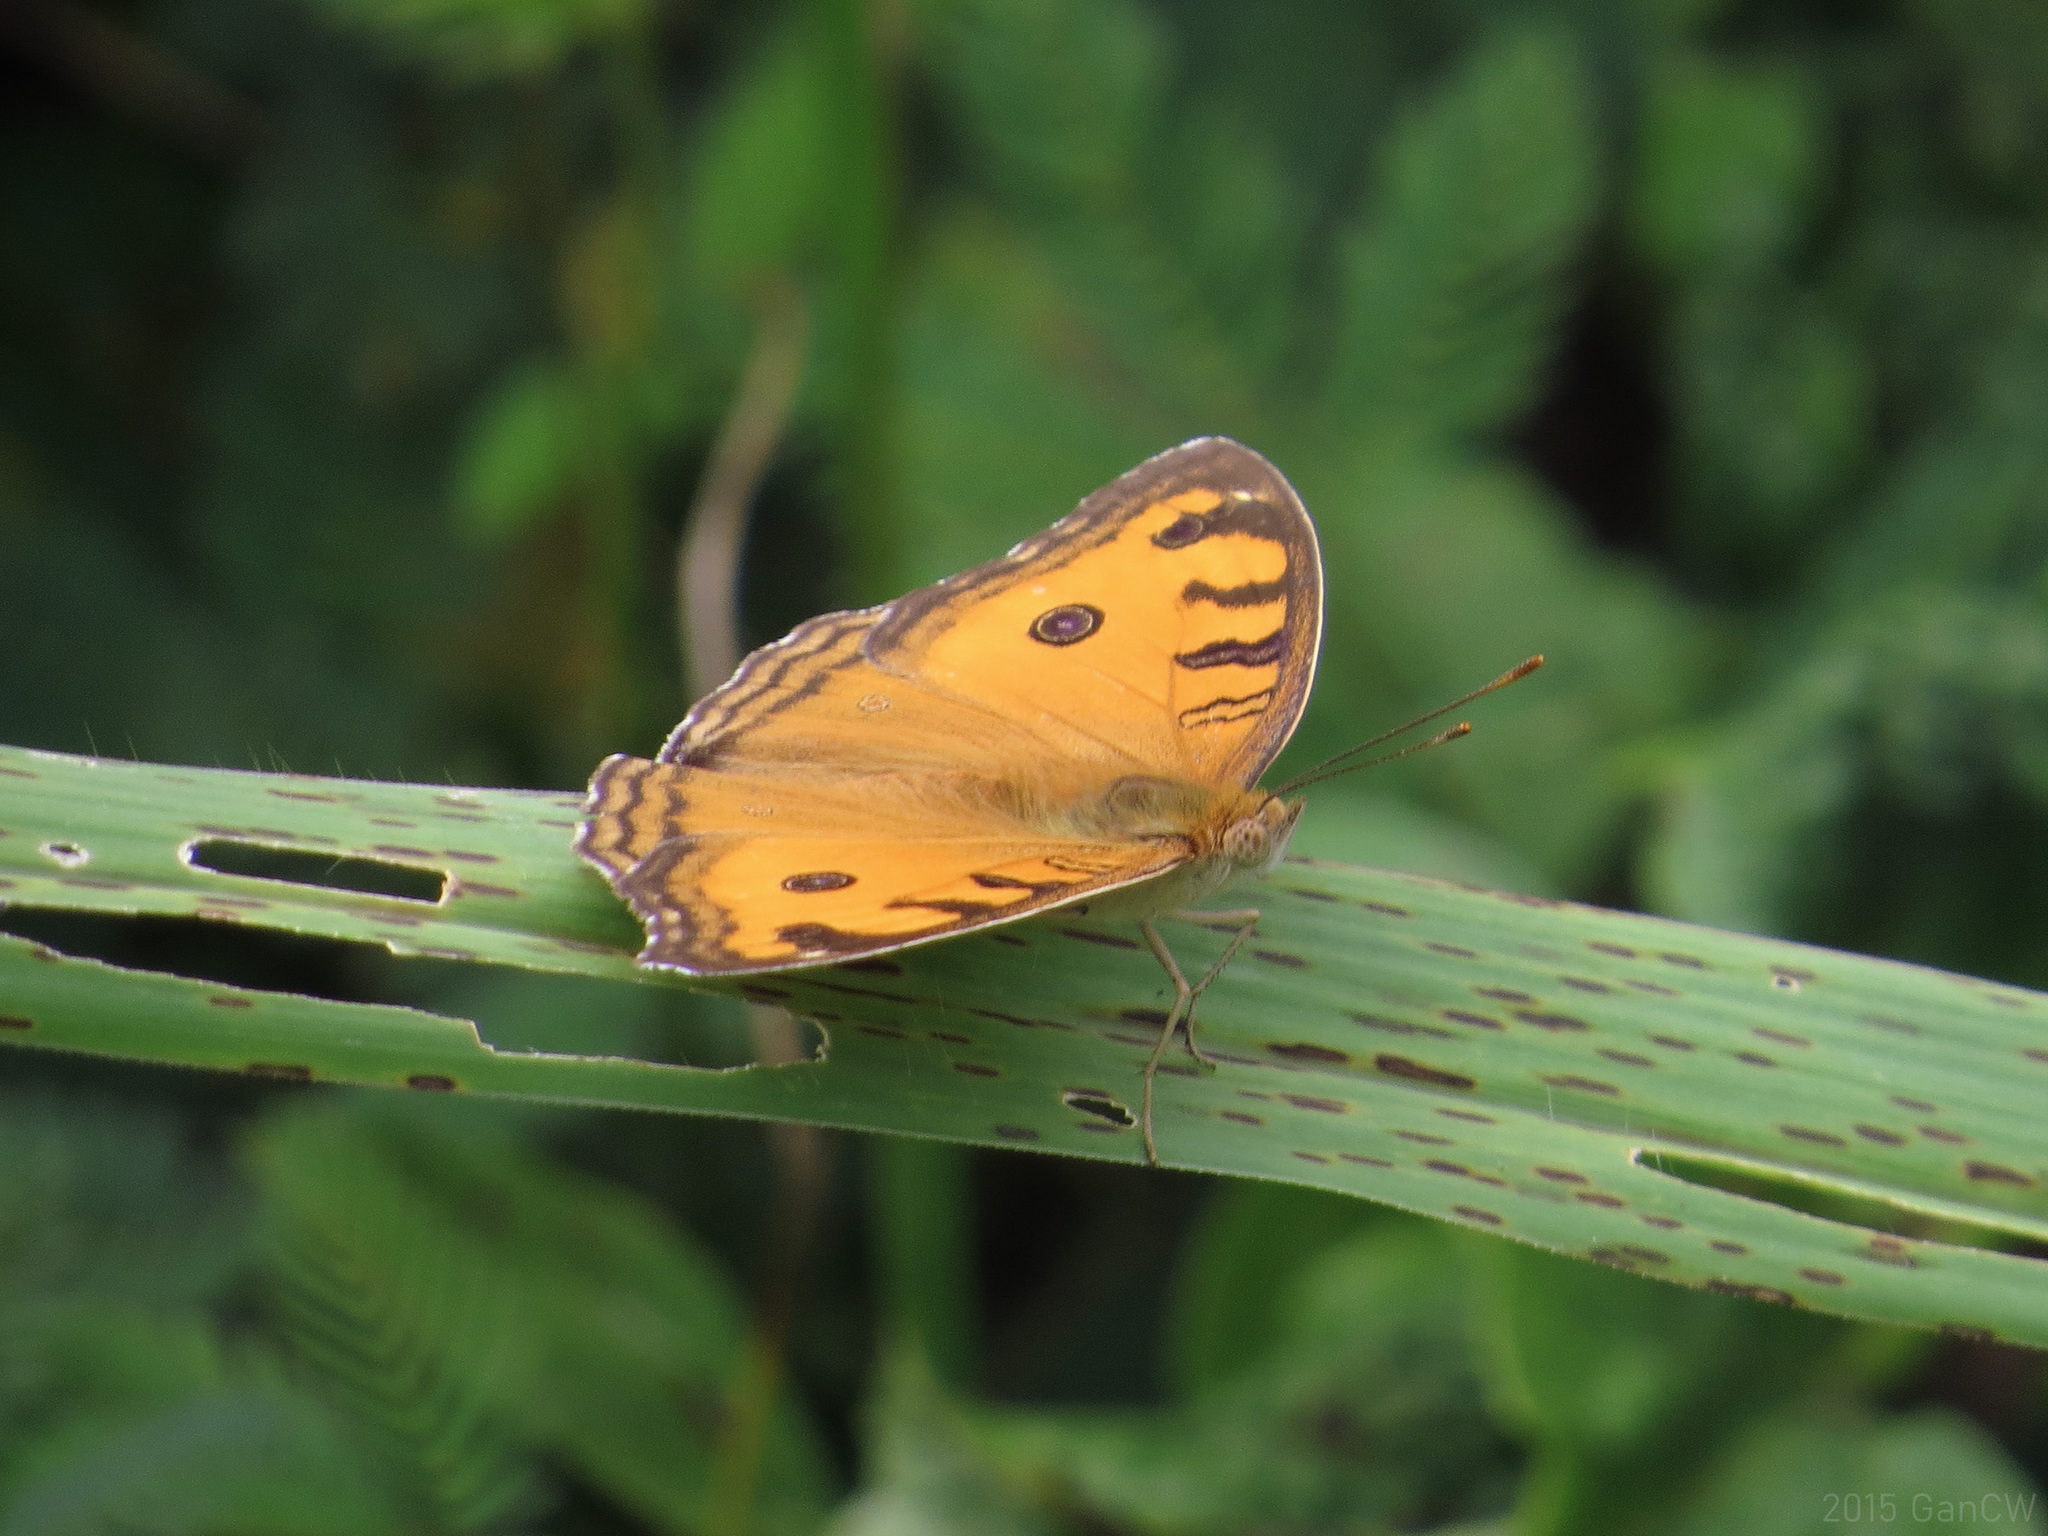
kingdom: Animalia
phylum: Arthropoda
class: Insecta
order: Lepidoptera
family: Nymphalidae
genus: Junonia
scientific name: Junonia almana
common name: Peacock pansy
